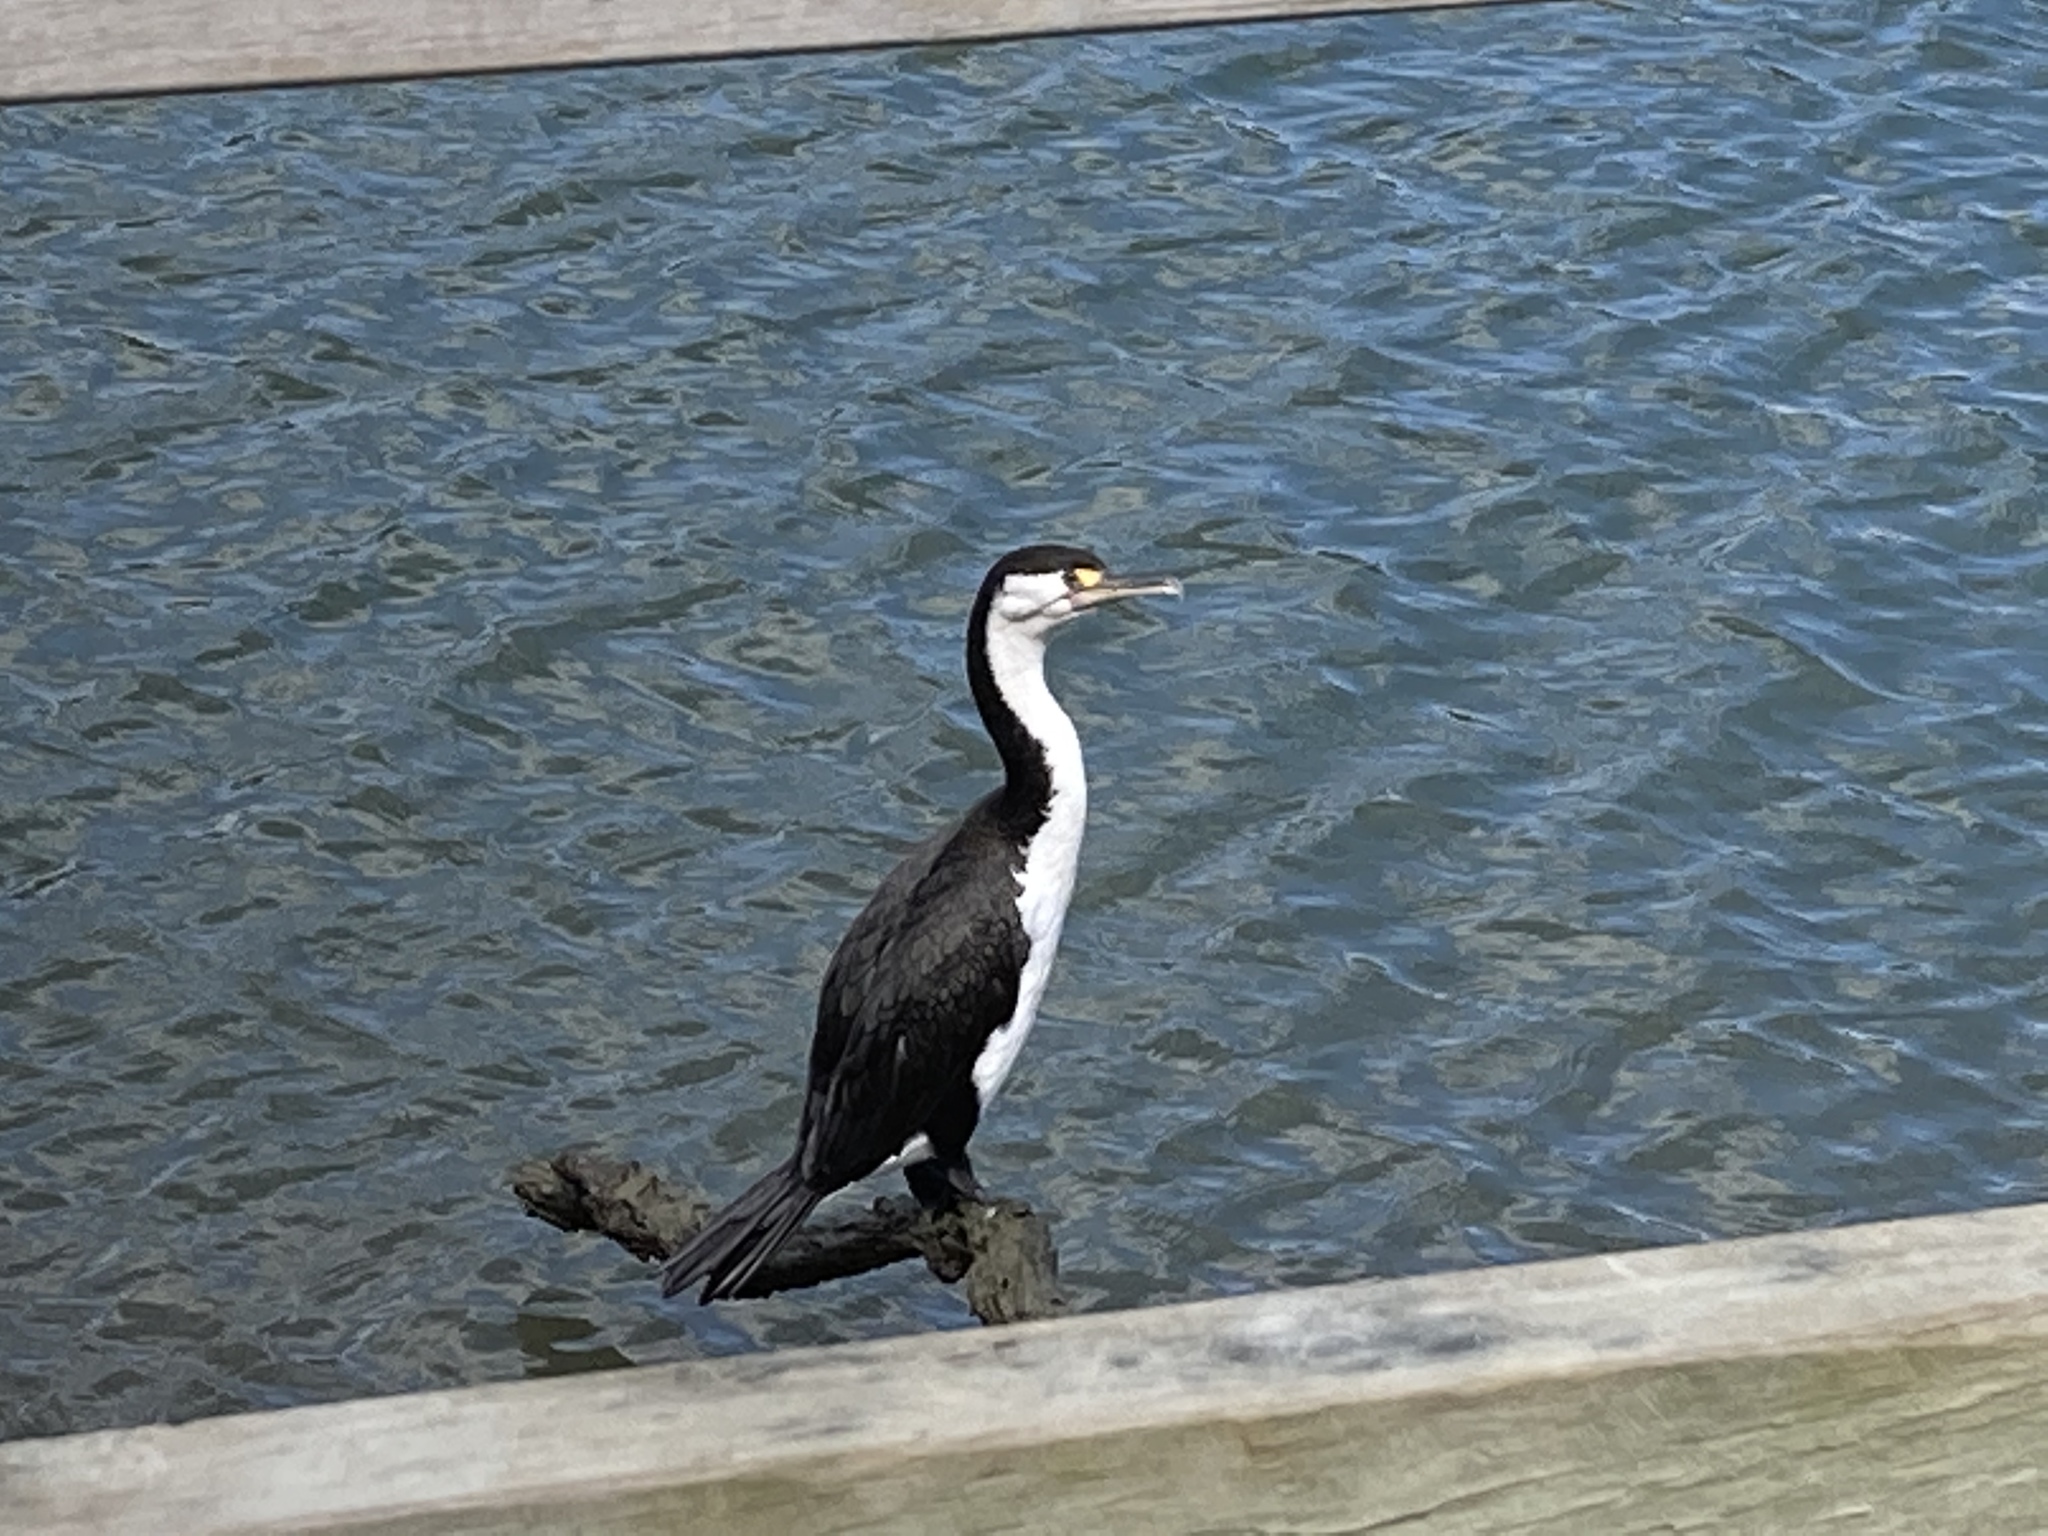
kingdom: Animalia
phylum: Chordata
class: Aves
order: Suliformes
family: Phalacrocoracidae
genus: Phalacrocorax
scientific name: Phalacrocorax varius
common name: Pied cormorant
